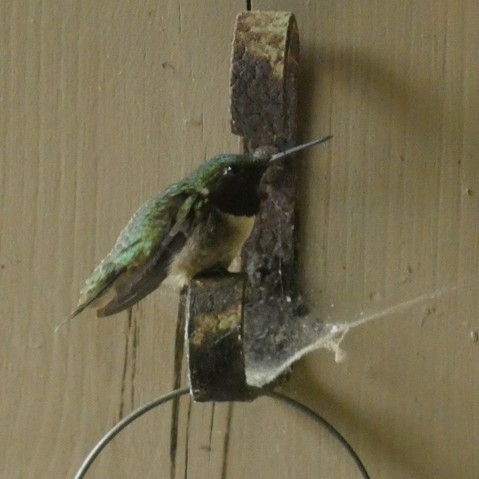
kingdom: Animalia
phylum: Chordata
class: Aves
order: Apodiformes
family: Trochilidae
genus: Archilochus
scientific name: Archilochus colubris
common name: Ruby-throated hummingbird
